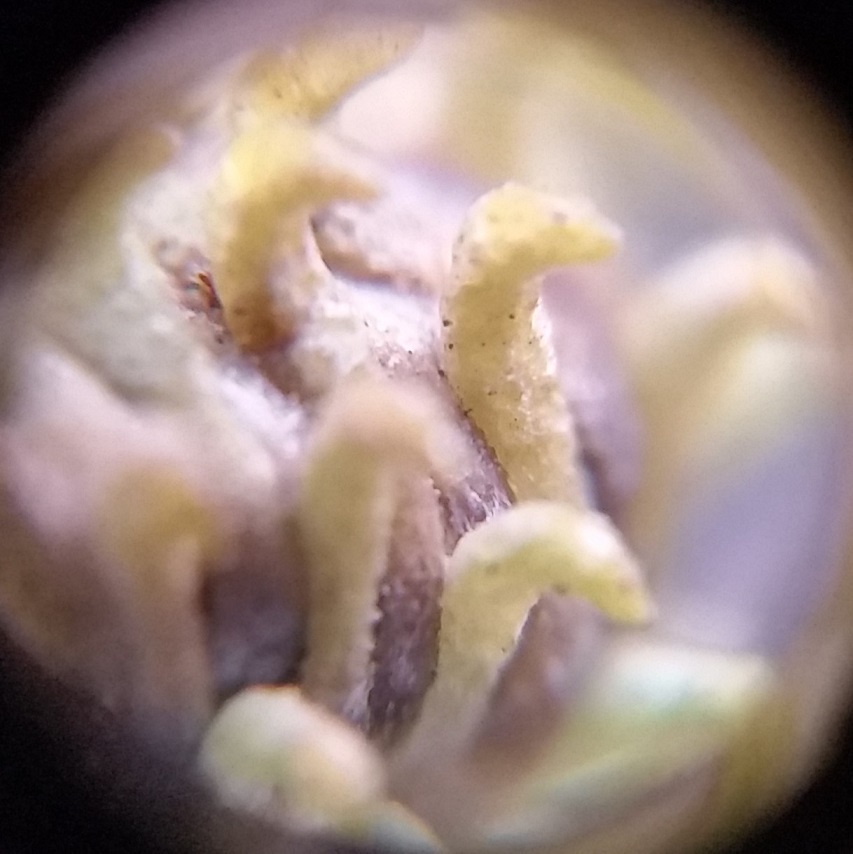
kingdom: Plantae
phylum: Tracheophyta
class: Magnoliopsida
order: Asterales
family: Asteraceae
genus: Grindelia
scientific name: Grindelia squarrosa
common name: Curly-cup gumweed
